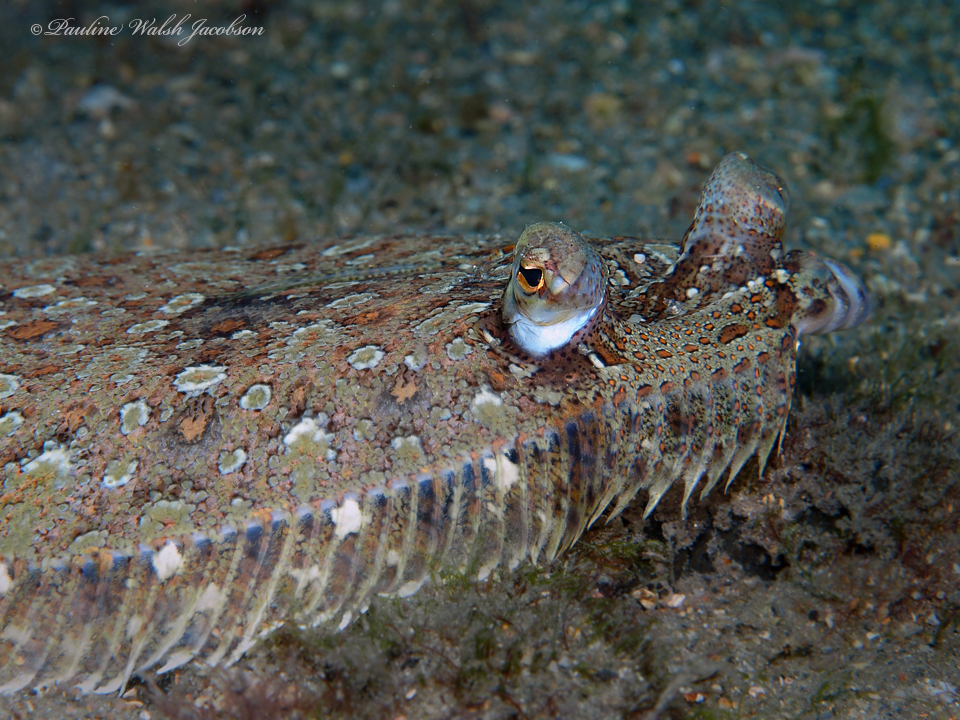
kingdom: Animalia
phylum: Chordata
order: Pleuronectiformes
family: Bothidae
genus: Bothus
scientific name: Bothus ocellatus
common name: Eyed flounder
